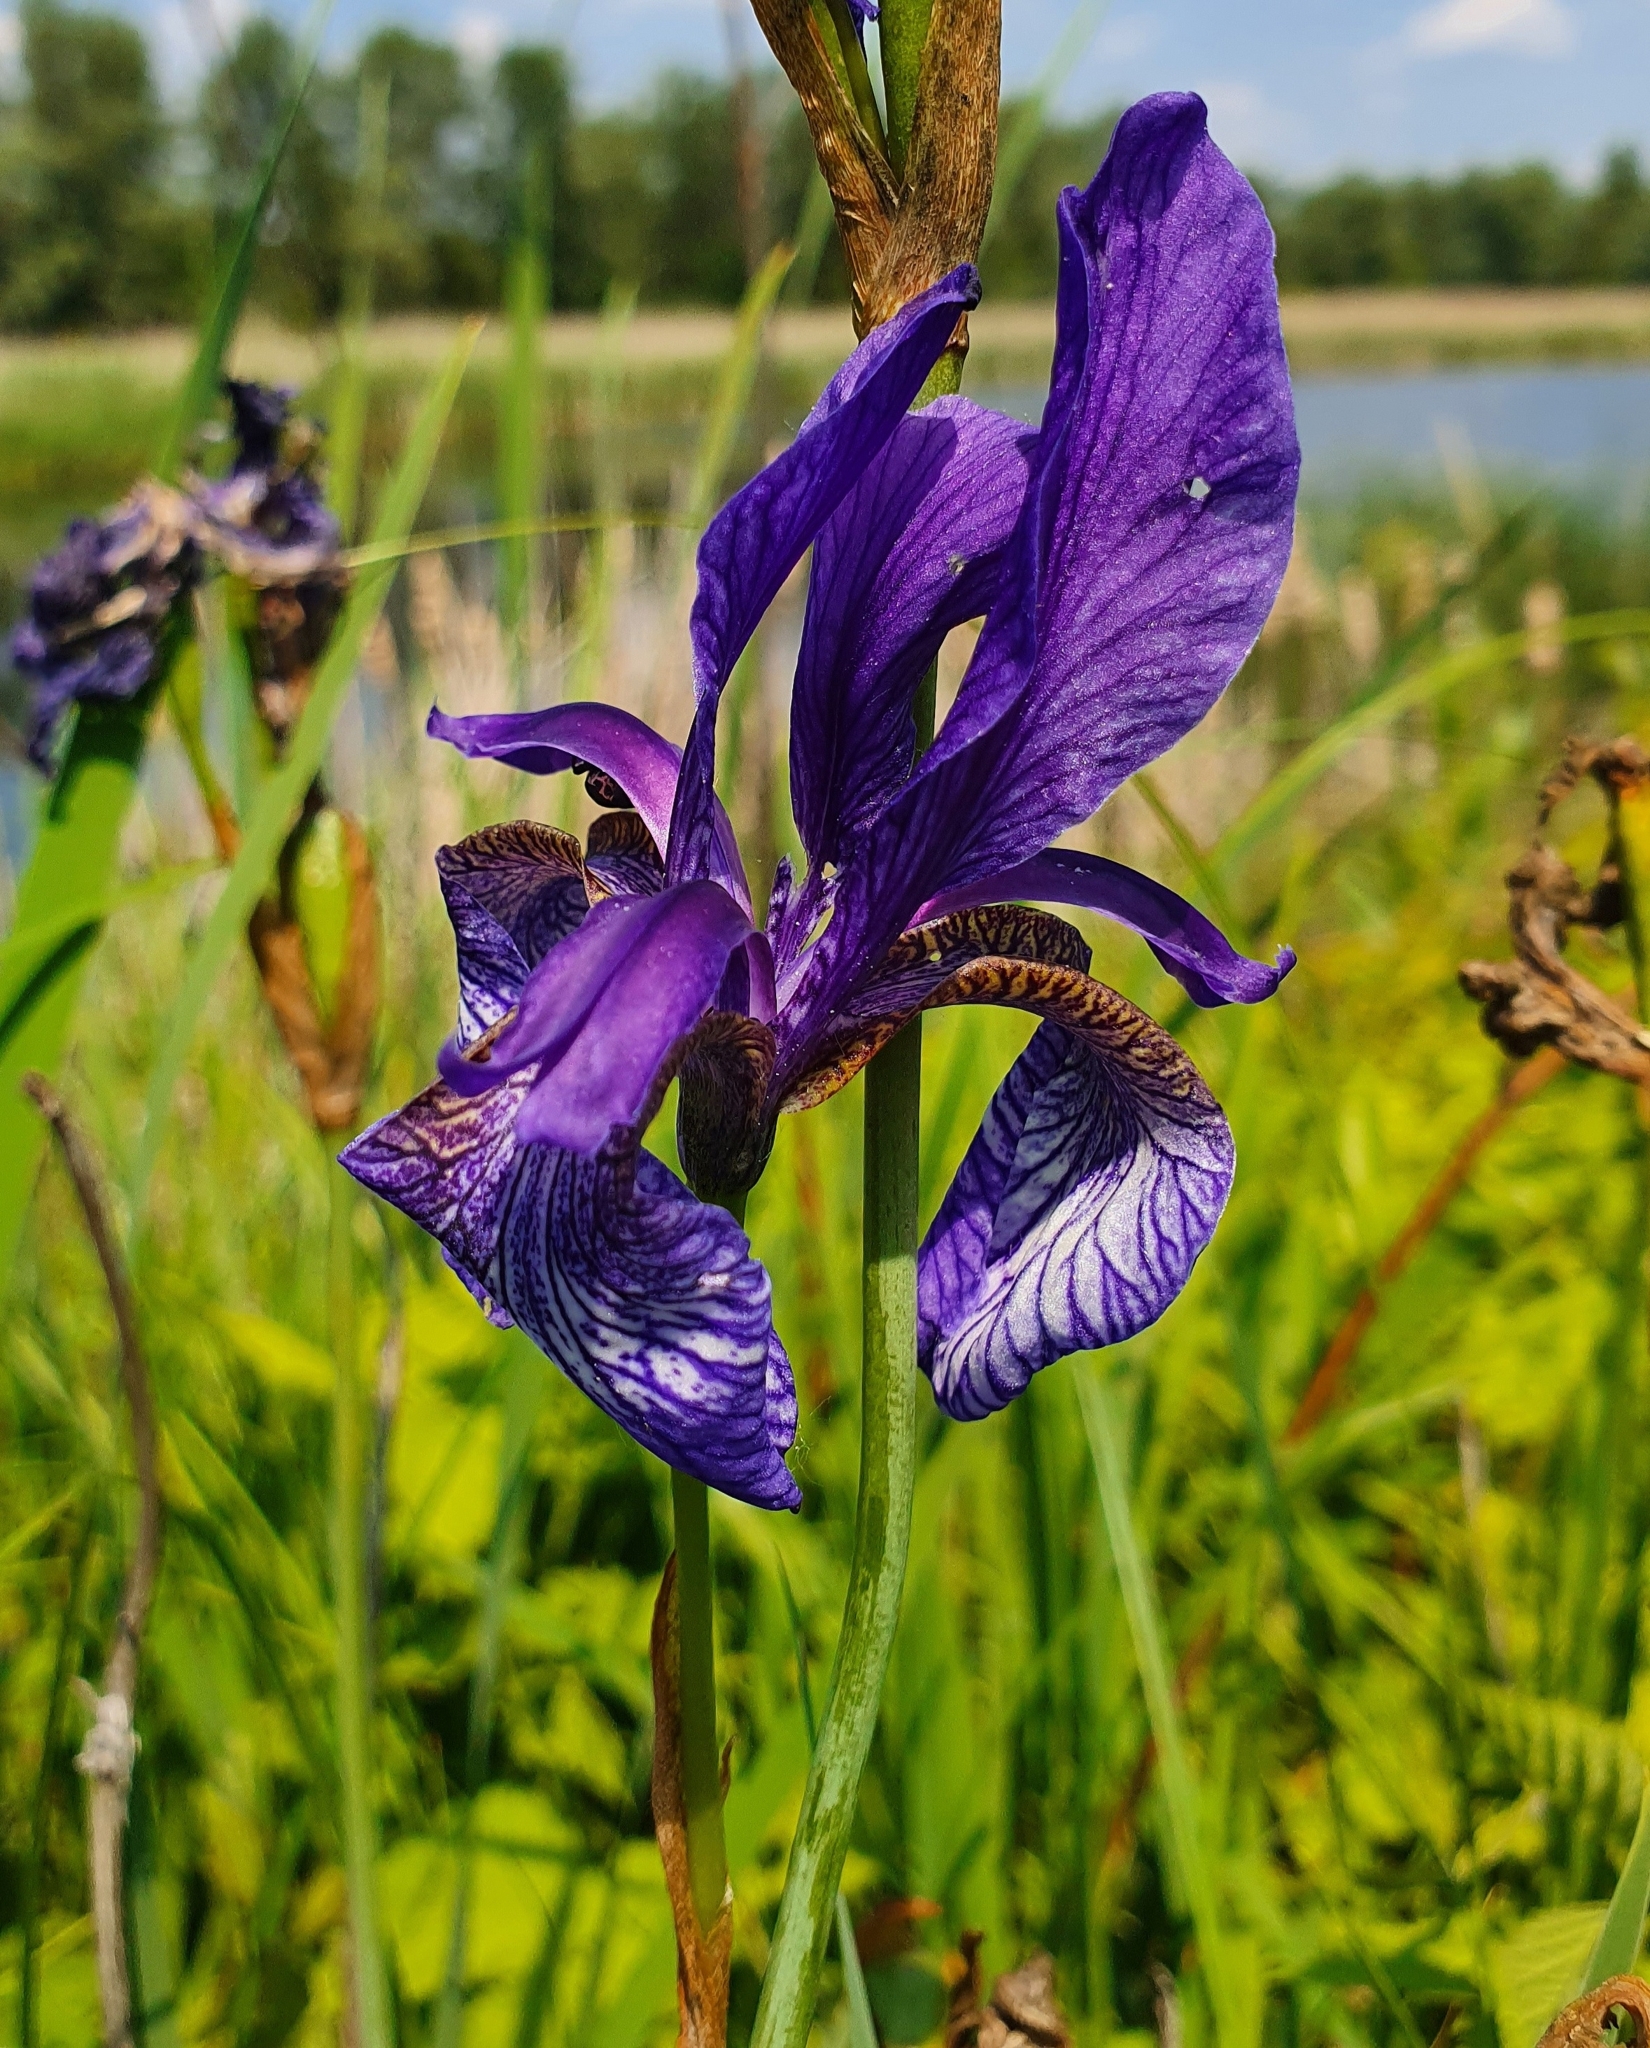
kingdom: Plantae
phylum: Tracheophyta
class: Liliopsida
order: Asparagales
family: Iridaceae
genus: Iris
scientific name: Iris sibirica
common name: Siberian iris
